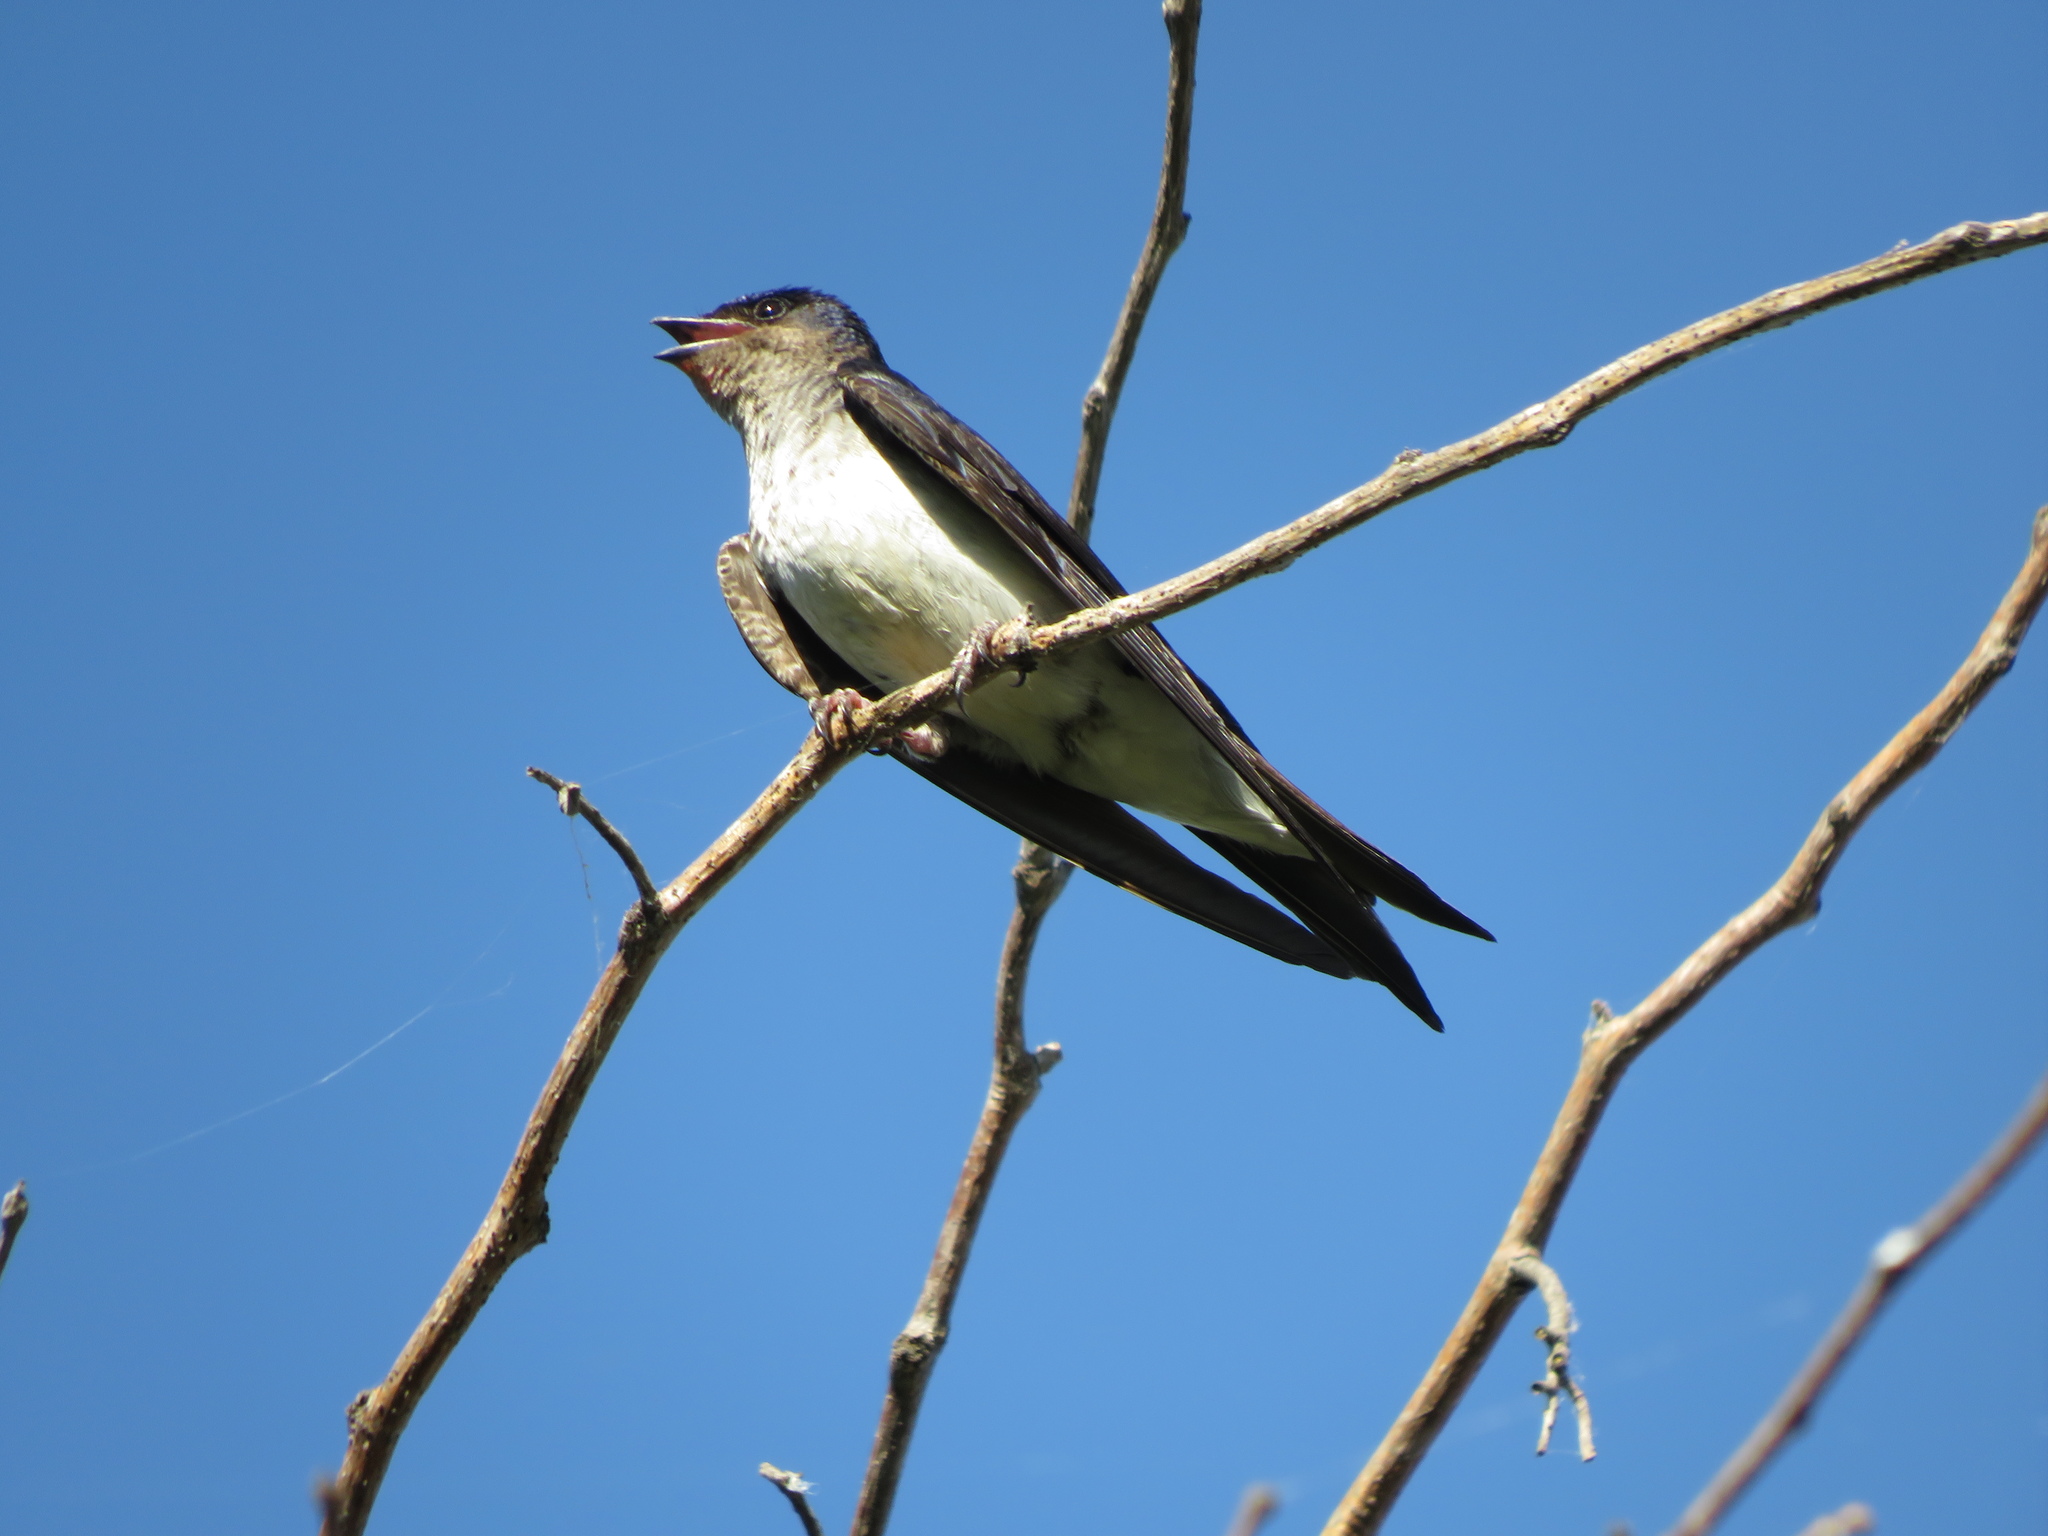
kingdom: Animalia
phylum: Chordata
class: Aves
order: Passeriformes
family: Hirundinidae
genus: Progne
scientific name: Progne chalybea
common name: Grey-breasted martin
